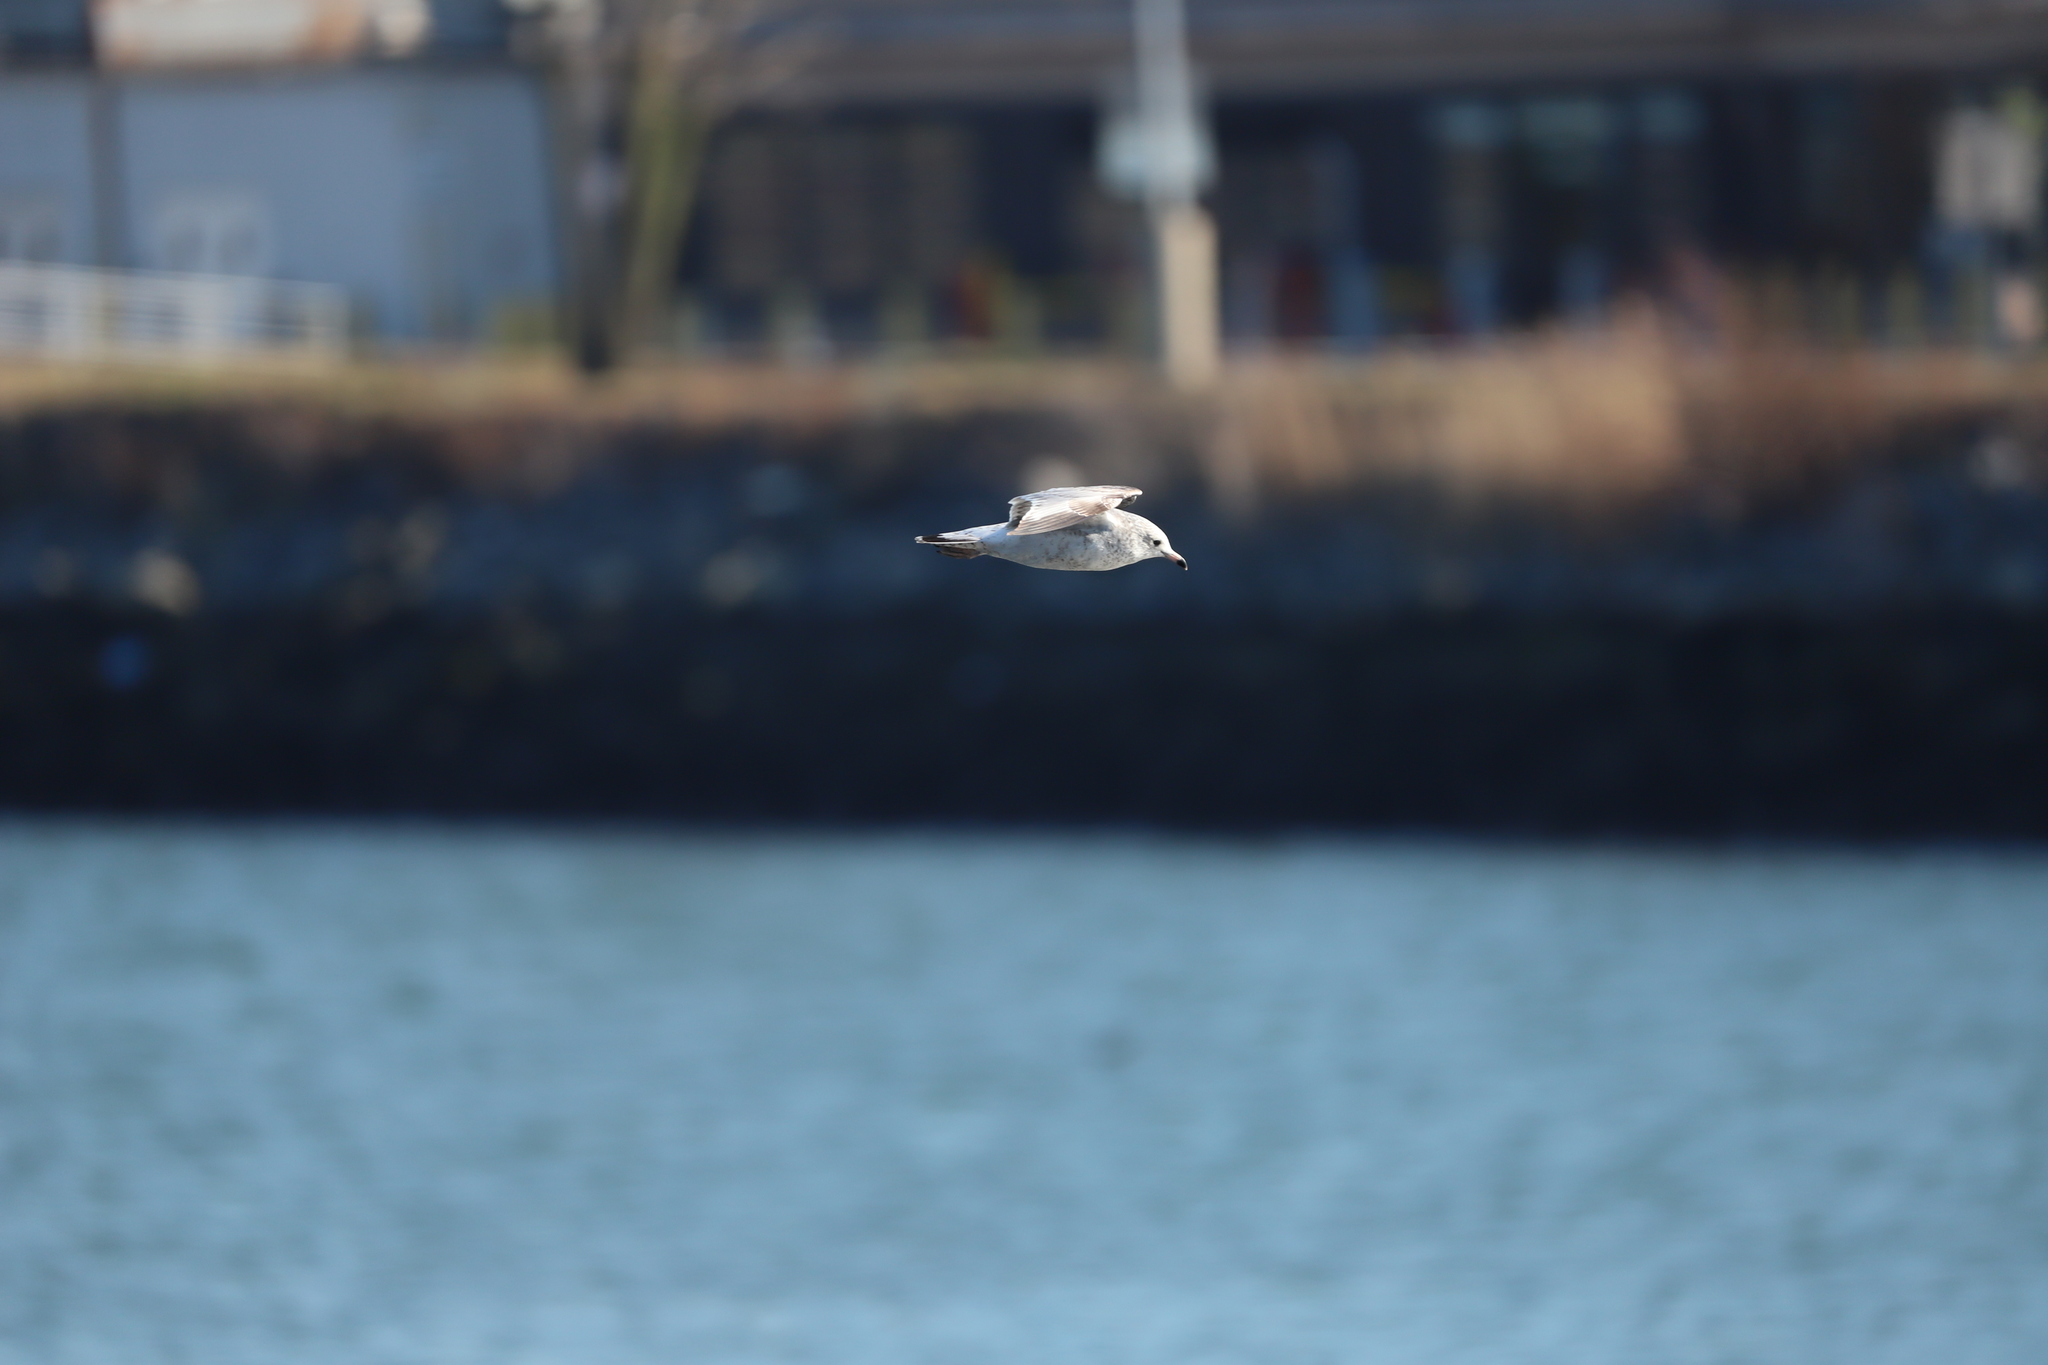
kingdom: Animalia
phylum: Chordata
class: Aves
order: Charadriiformes
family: Laridae
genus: Larus
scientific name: Larus delawarensis
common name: Ring-billed gull
